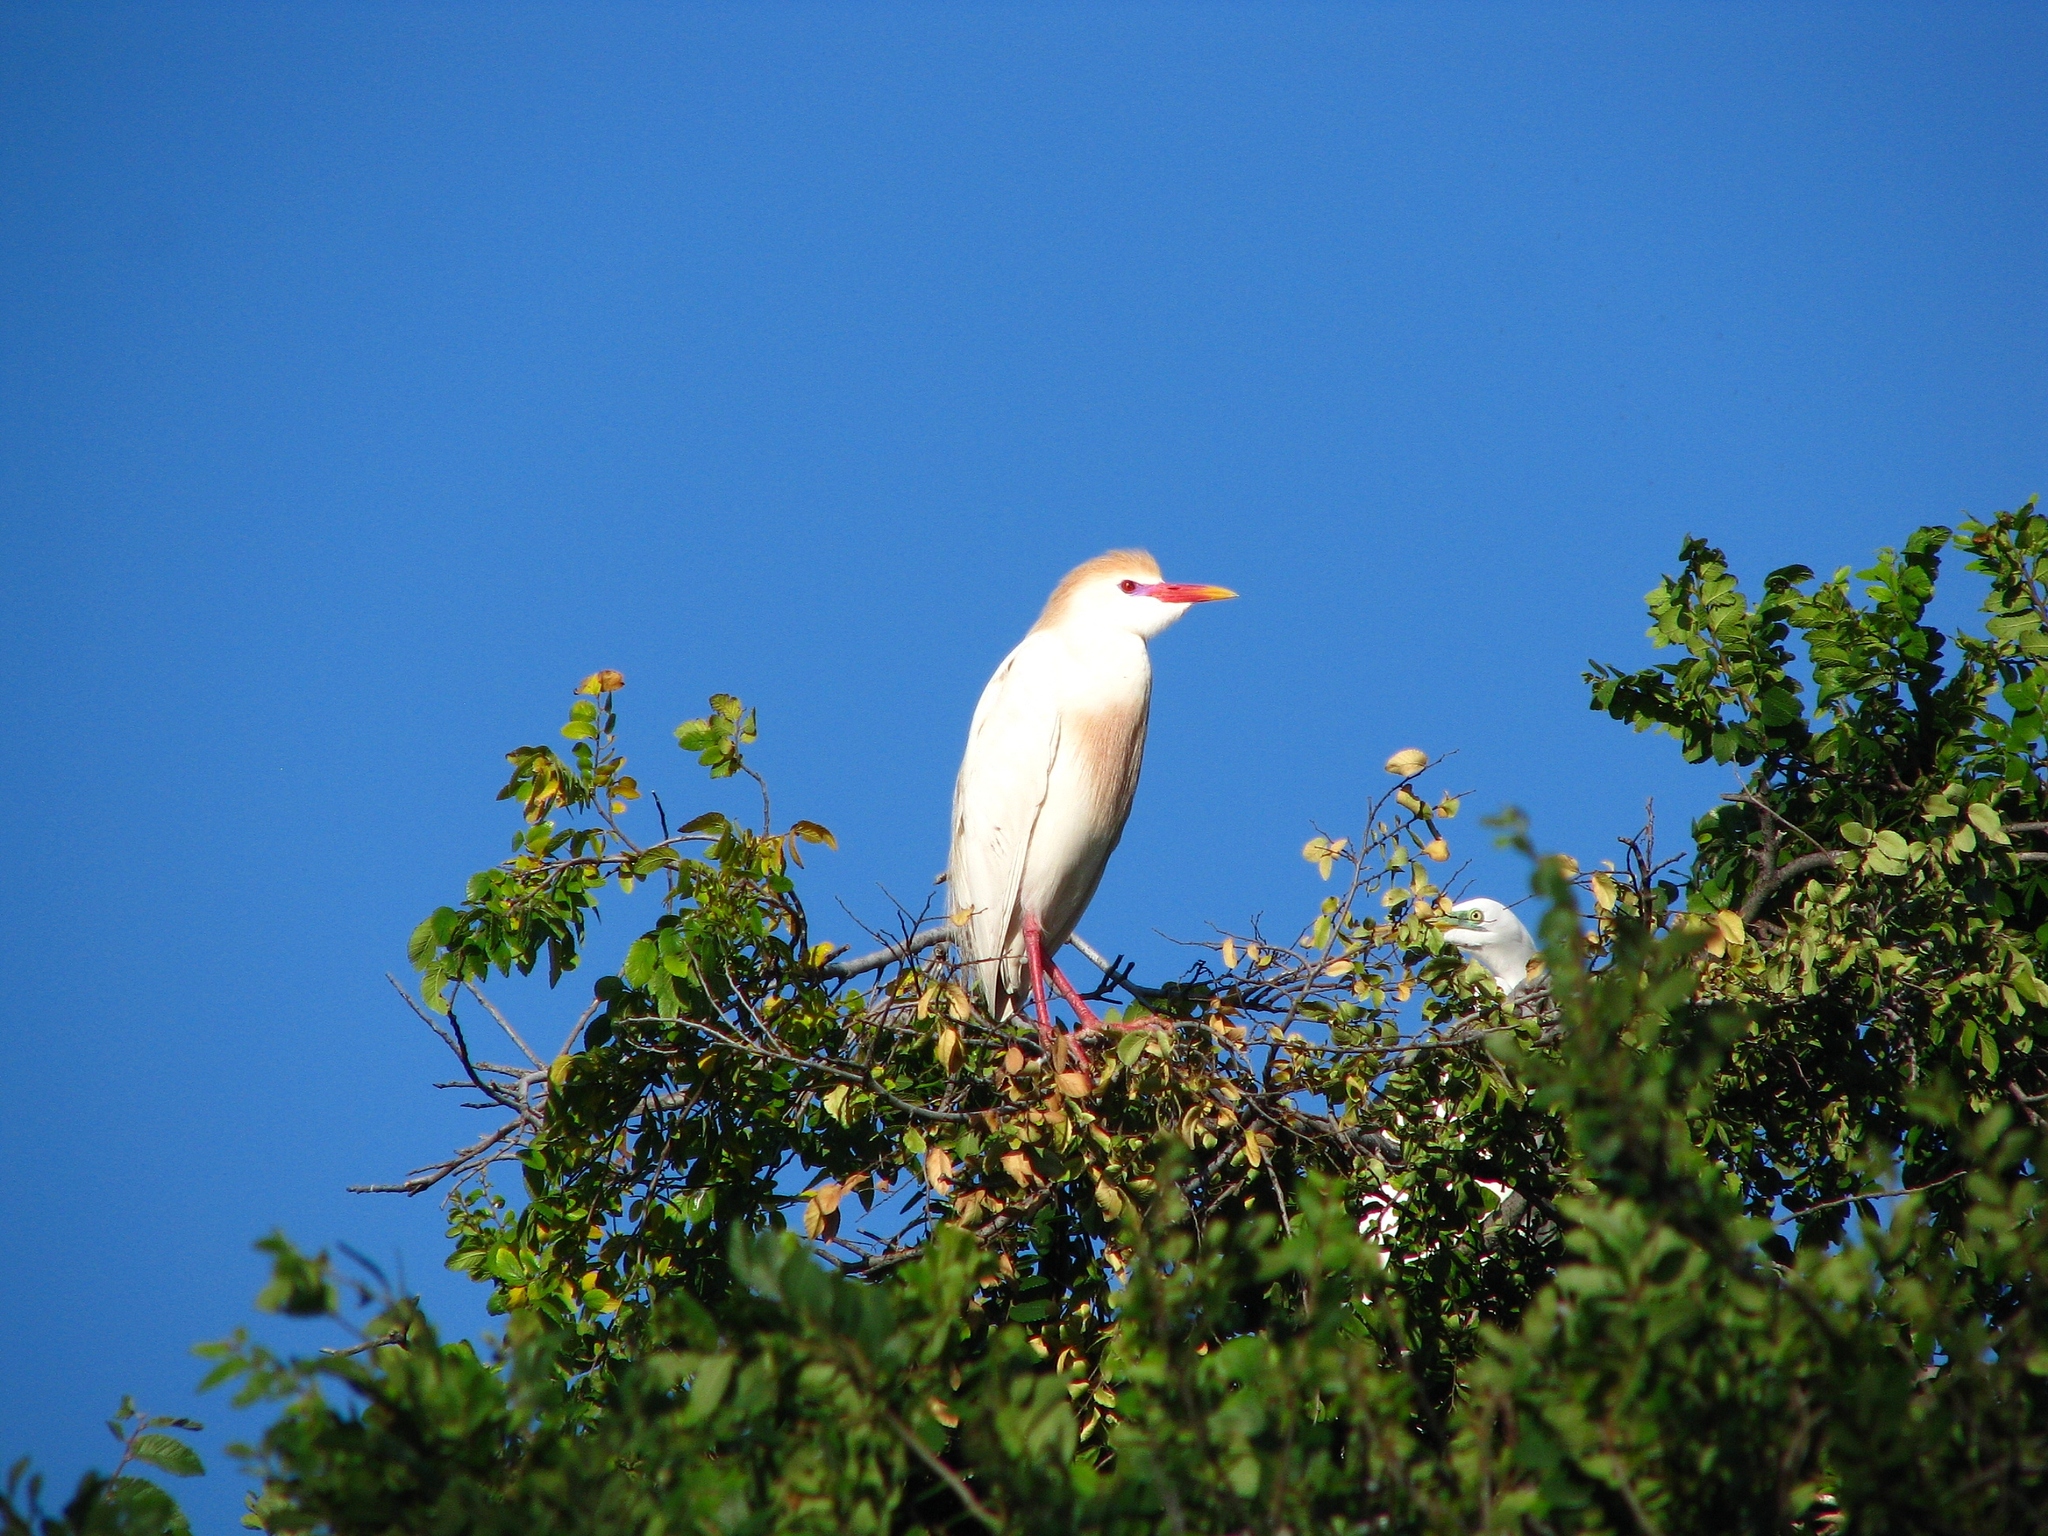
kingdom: Animalia
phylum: Chordata
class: Aves
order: Pelecaniformes
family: Ardeidae
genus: Bubulcus
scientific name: Bubulcus ibis
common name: Cattle egret
